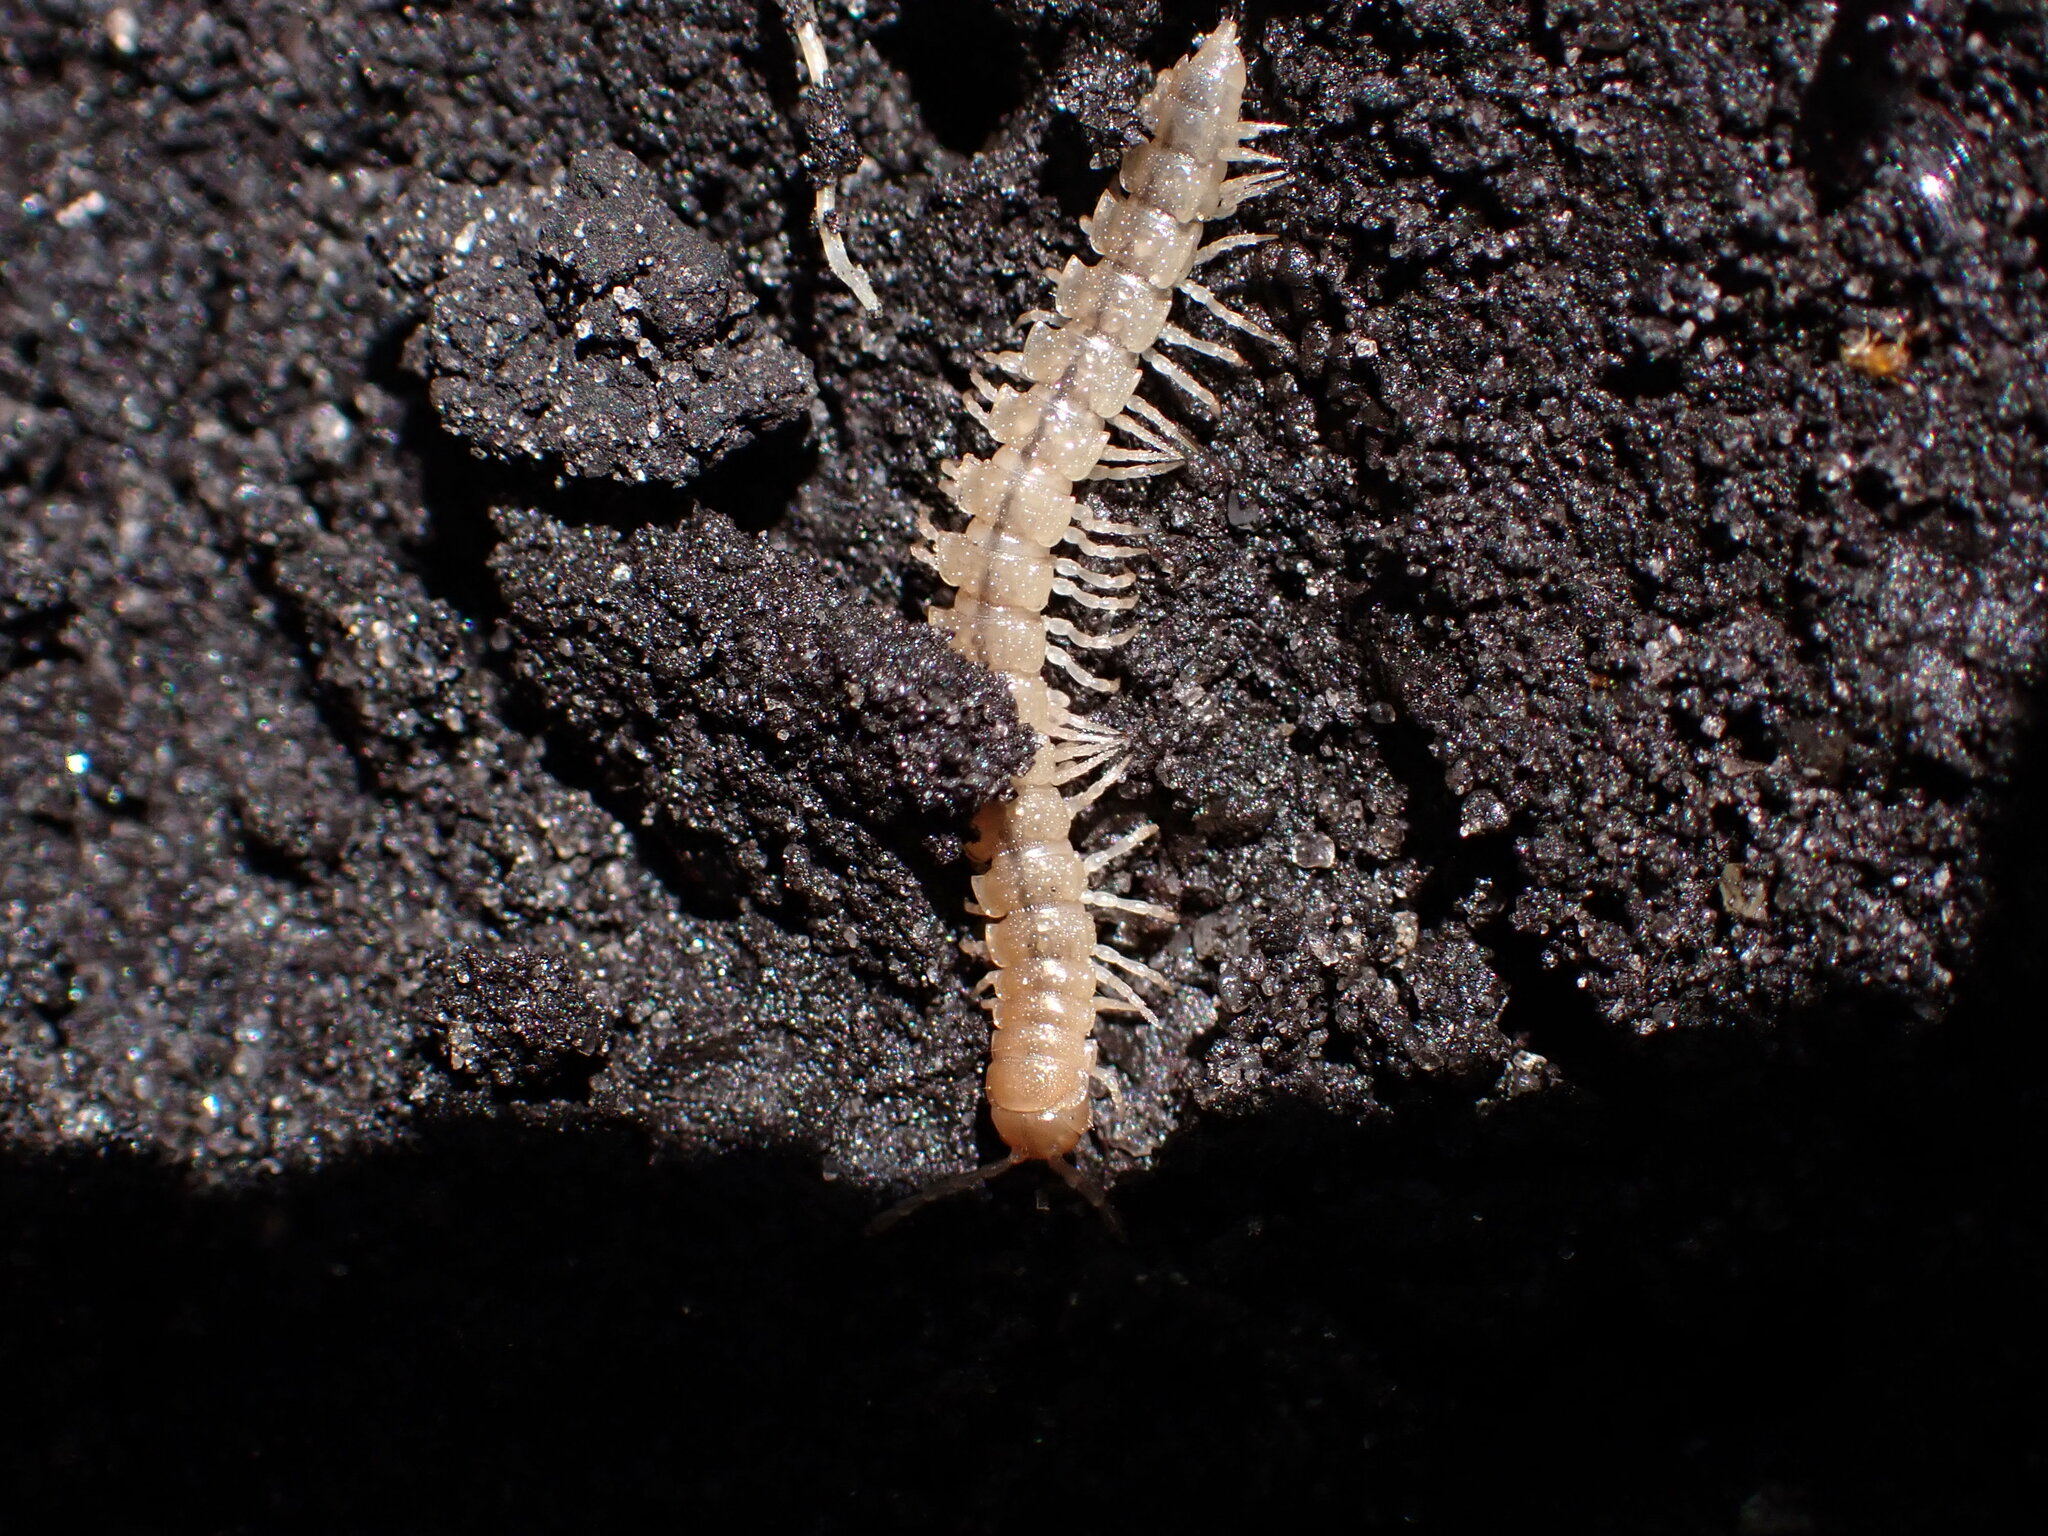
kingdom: Animalia
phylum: Arthropoda
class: Diplopoda
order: Polydesmida
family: Paradoxosomatidae
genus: Oxidus
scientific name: Oxidus gracilis
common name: Greenhouse millipede
